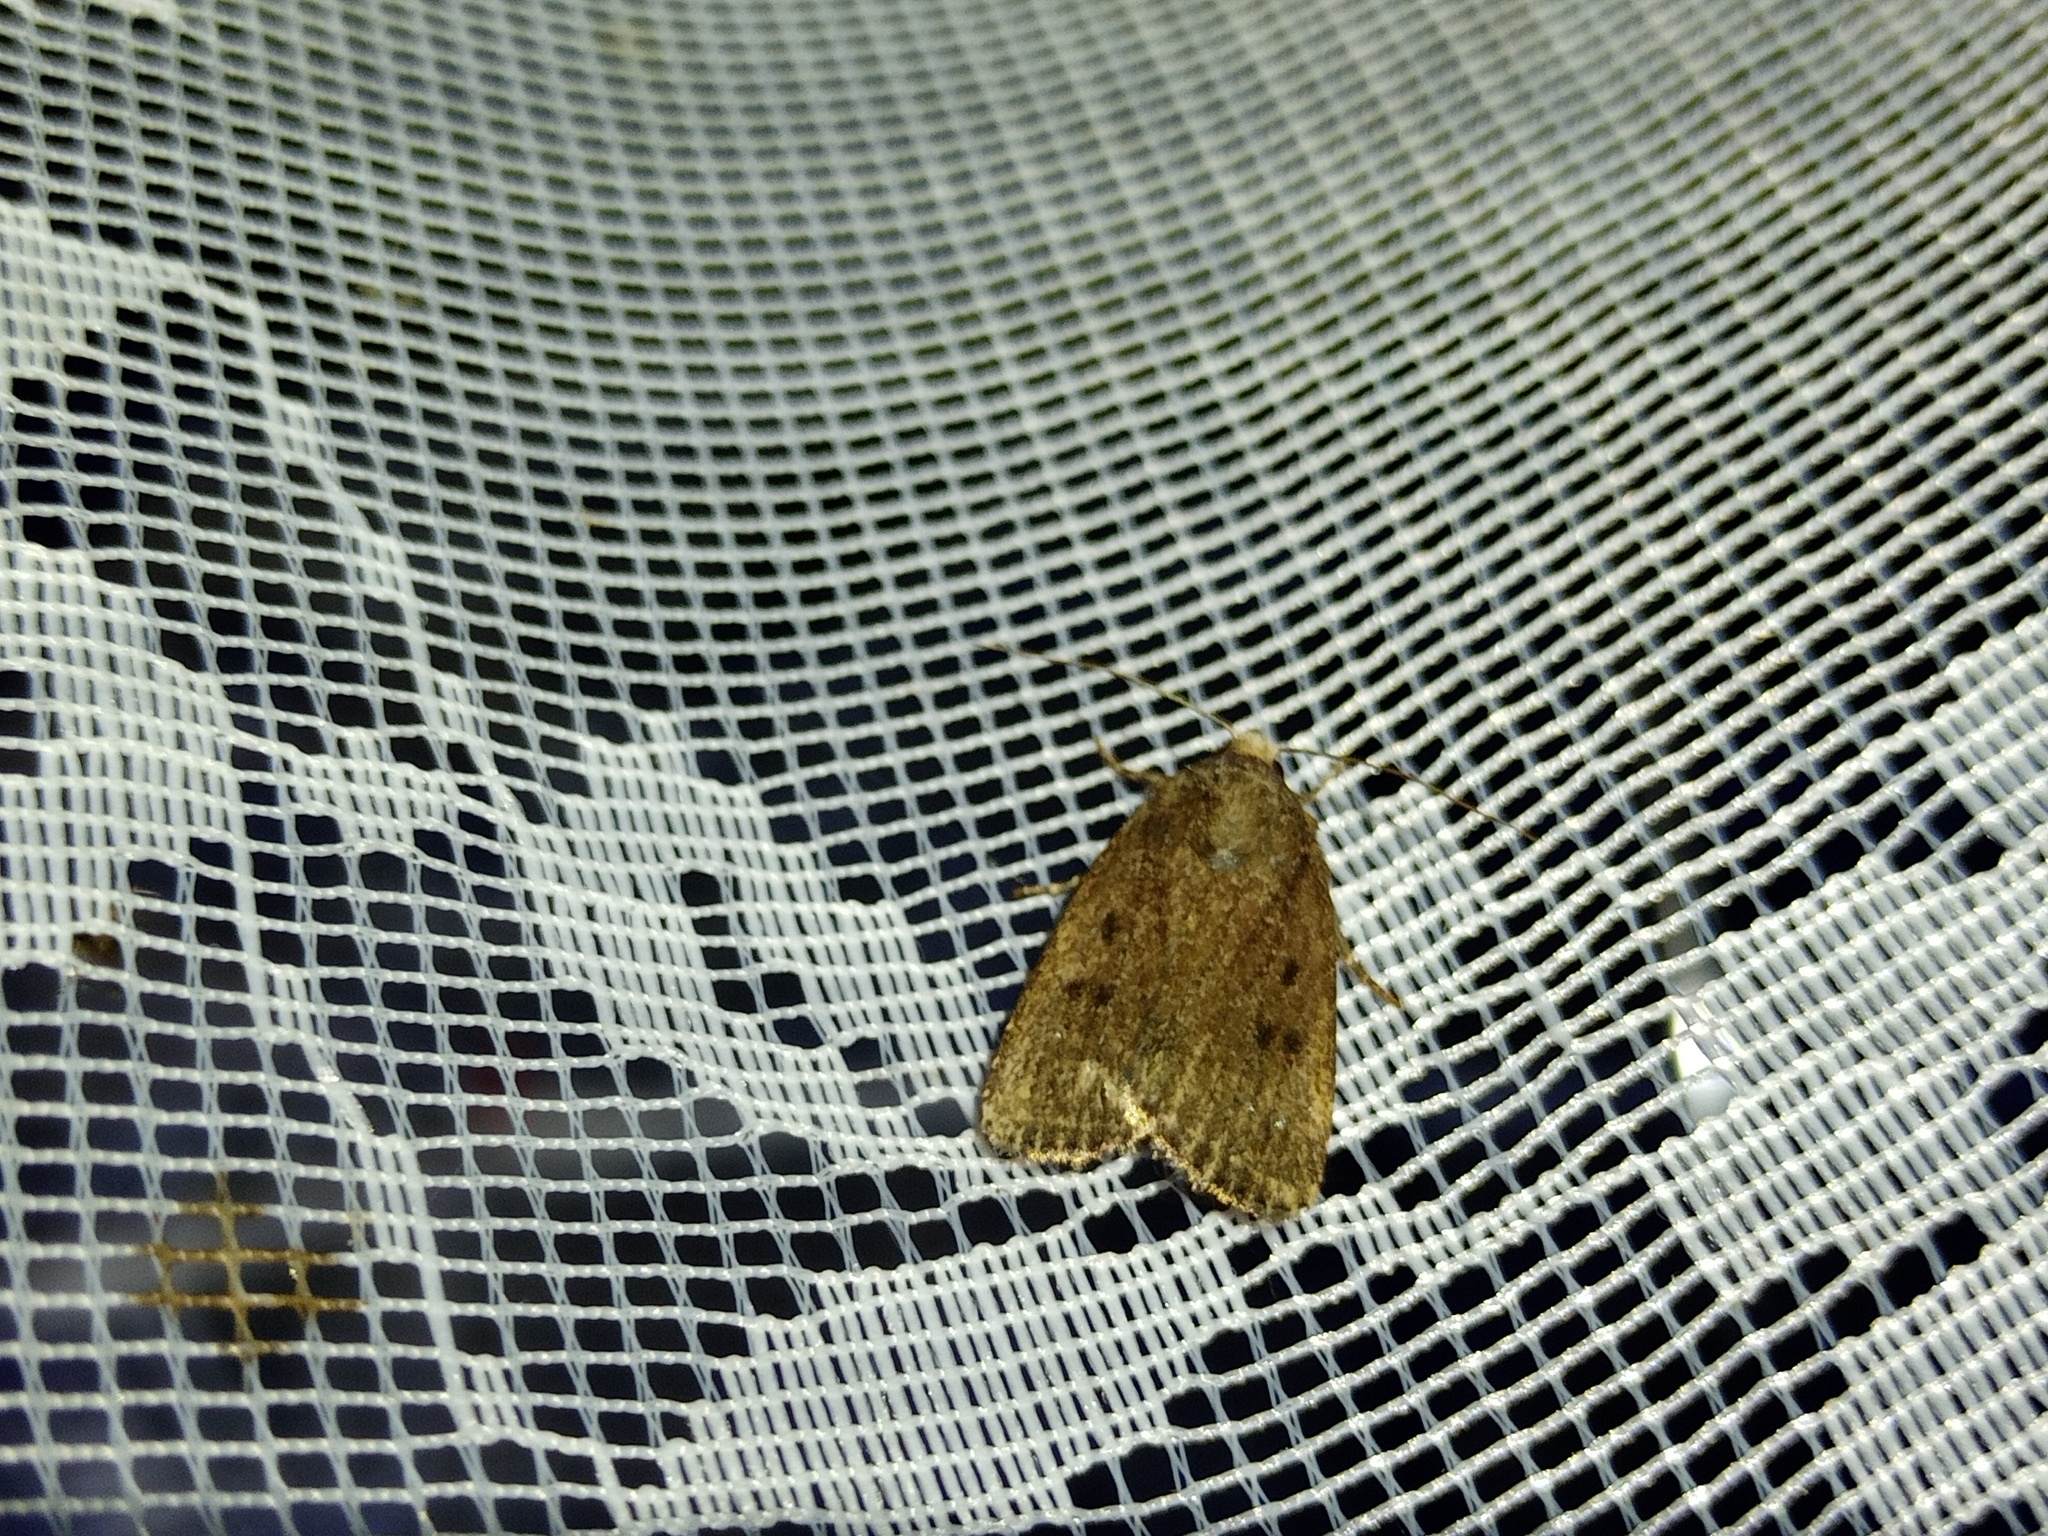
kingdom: Animalia
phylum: Arthropoda
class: Insecta
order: Lepidoptera
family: Noctuidae
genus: Amphipyra
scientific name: Amphipyra tragopoginis
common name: Mouse moth
